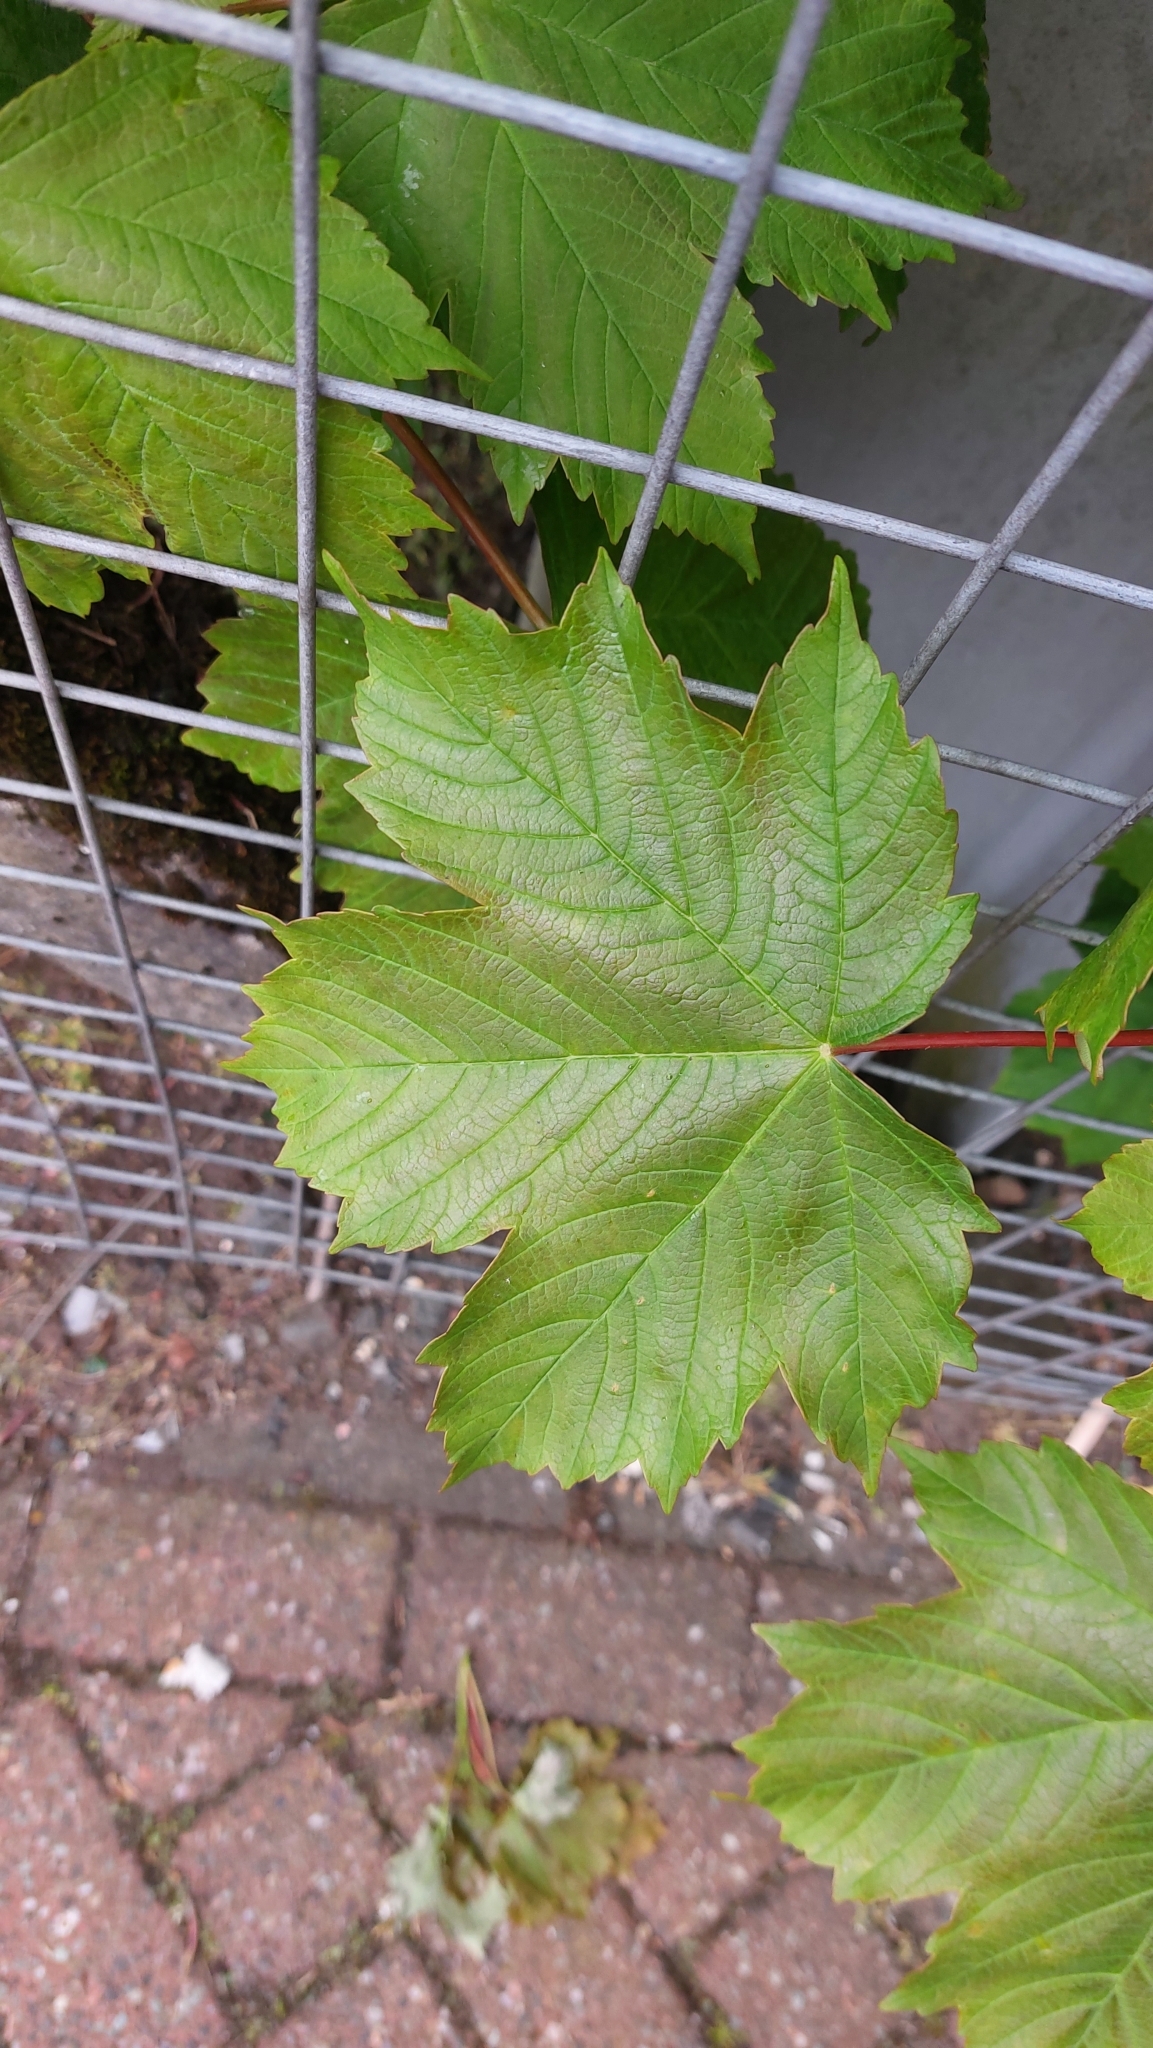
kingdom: Plantae
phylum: Tracheophyta
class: Magnoliopsida
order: Sapindales
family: Sapindaceae
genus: Acer
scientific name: Acer pseudoplatanus
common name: Sycamore
